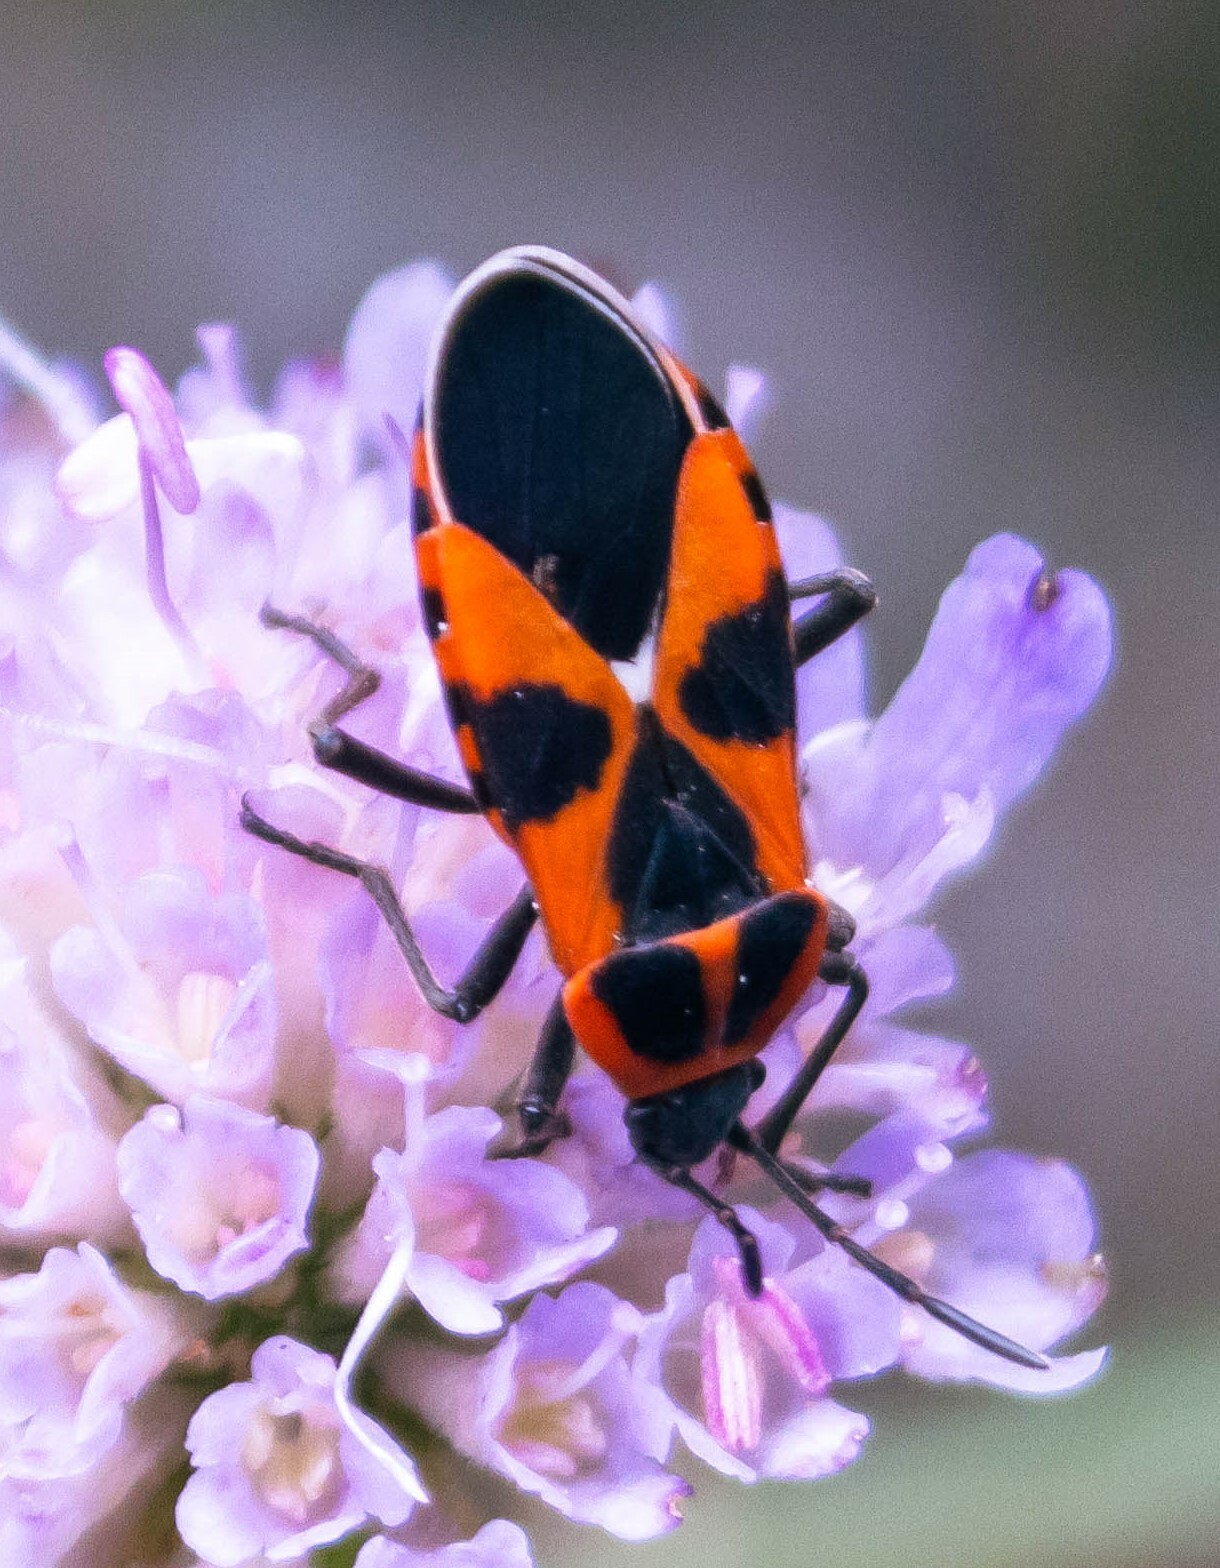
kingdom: Animalia
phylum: Arthropoda
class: Insecta
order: Hemiptera
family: Lygaeidae
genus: Tropidothorax
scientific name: Tropidothorax leucopterus
